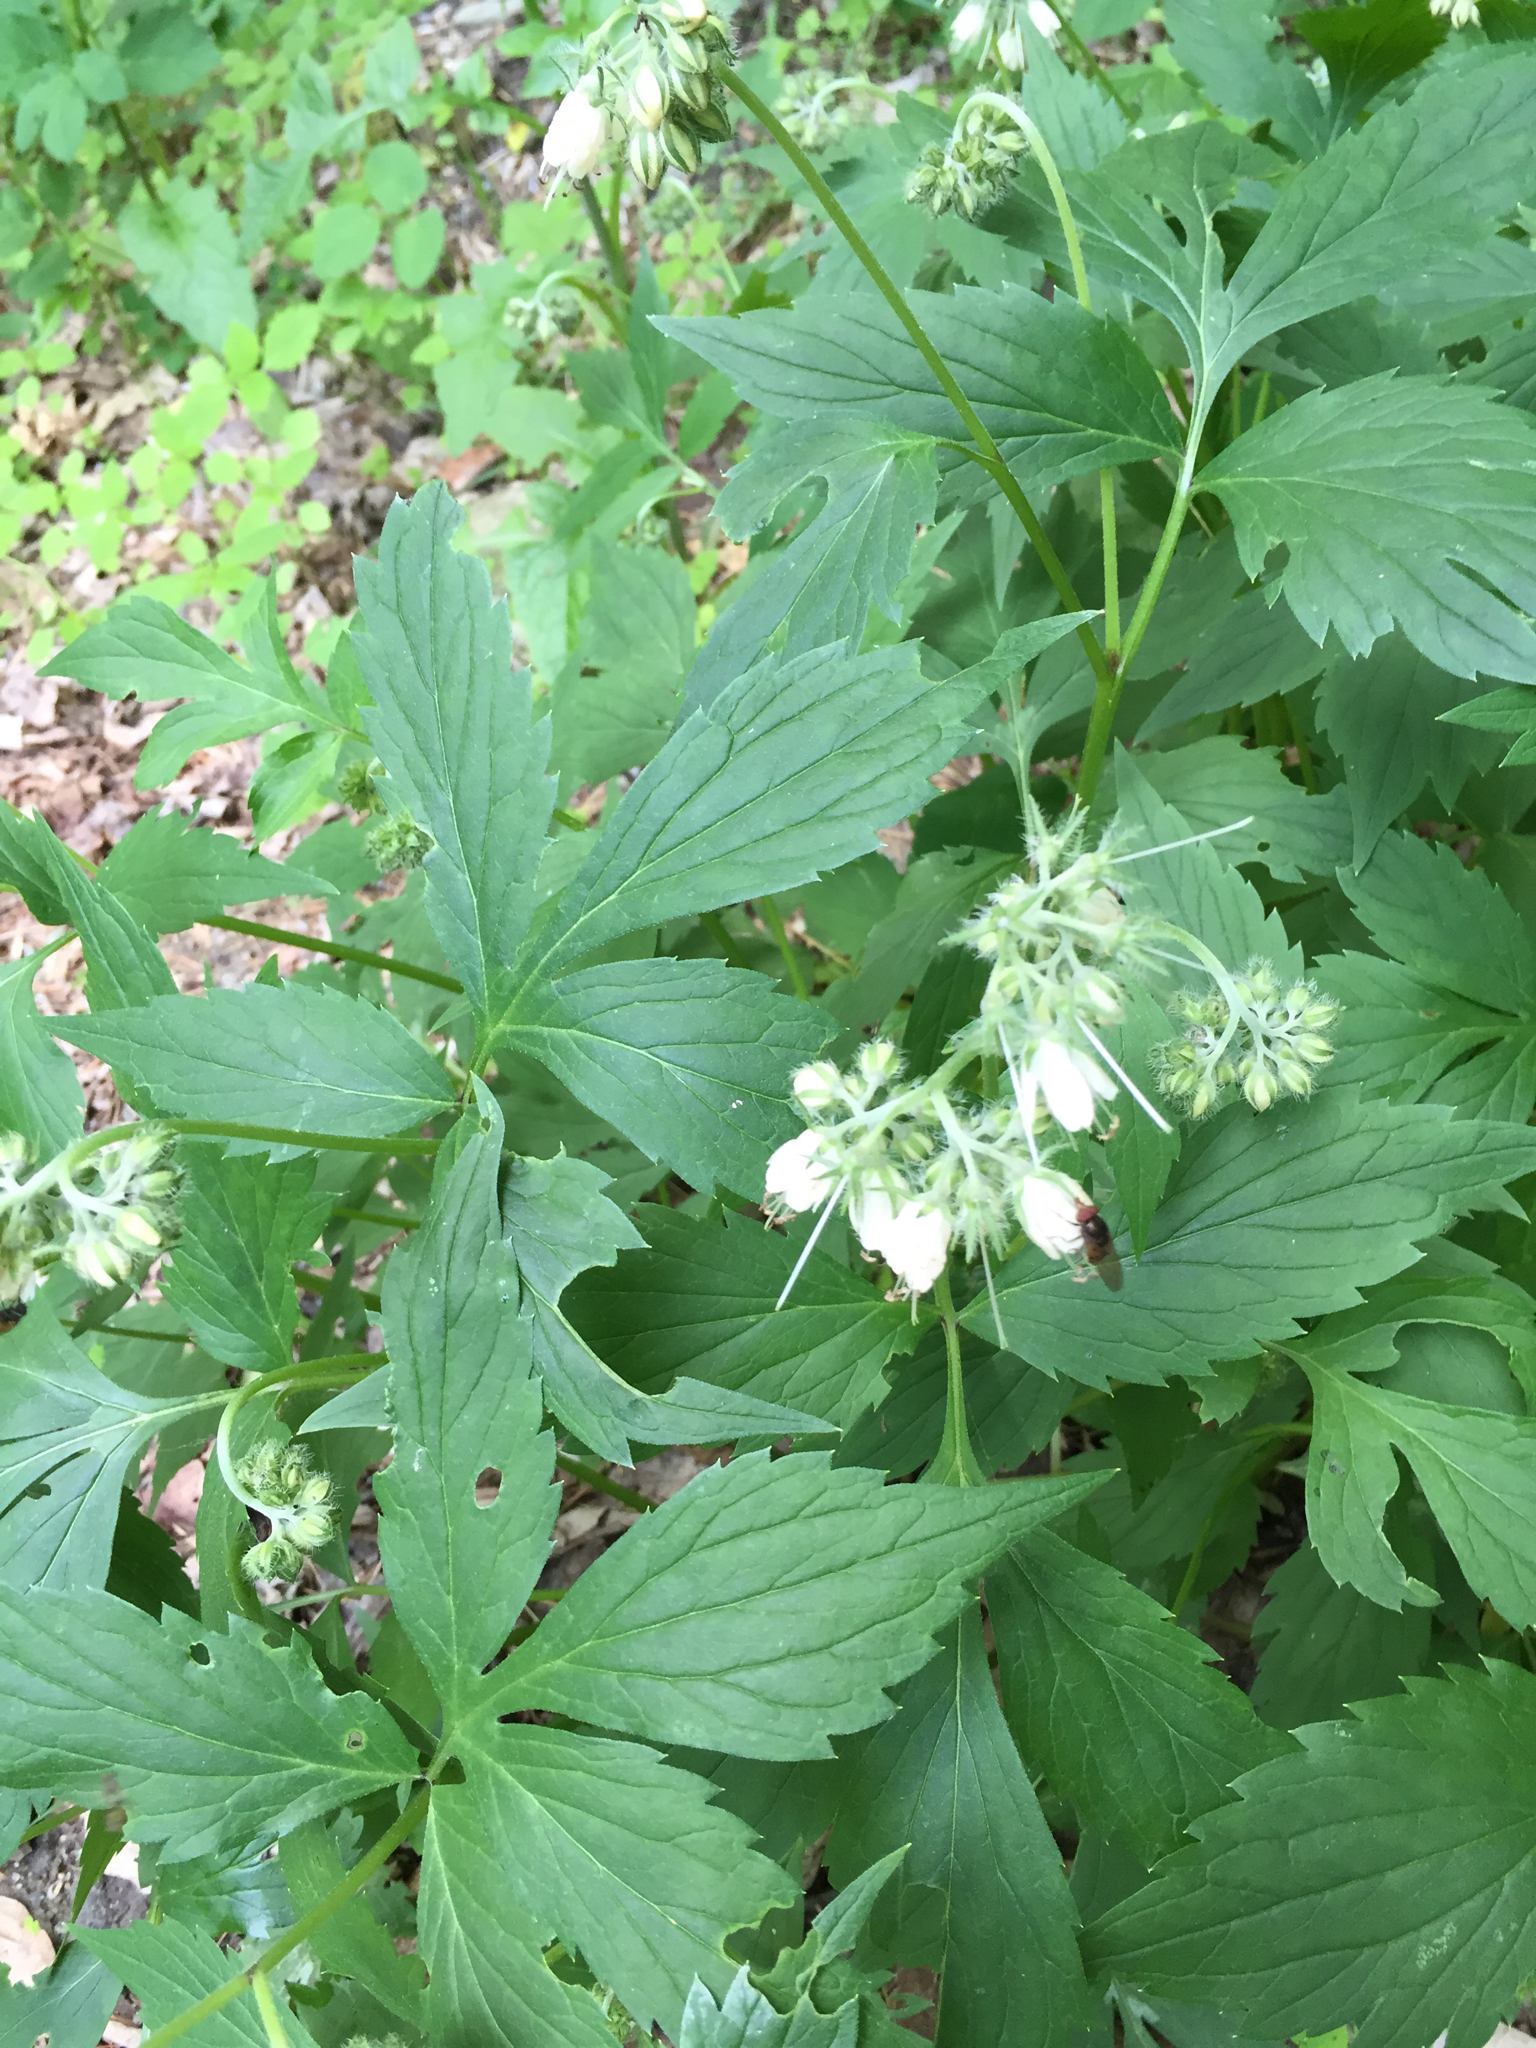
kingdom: Plantae
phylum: Tracheophyta
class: Magnoliopsida
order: Boraginales
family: Hydrophyllaceae
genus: Hydrophyllum
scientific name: Hydrophyllum virginianum
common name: Virginia waterleaf
